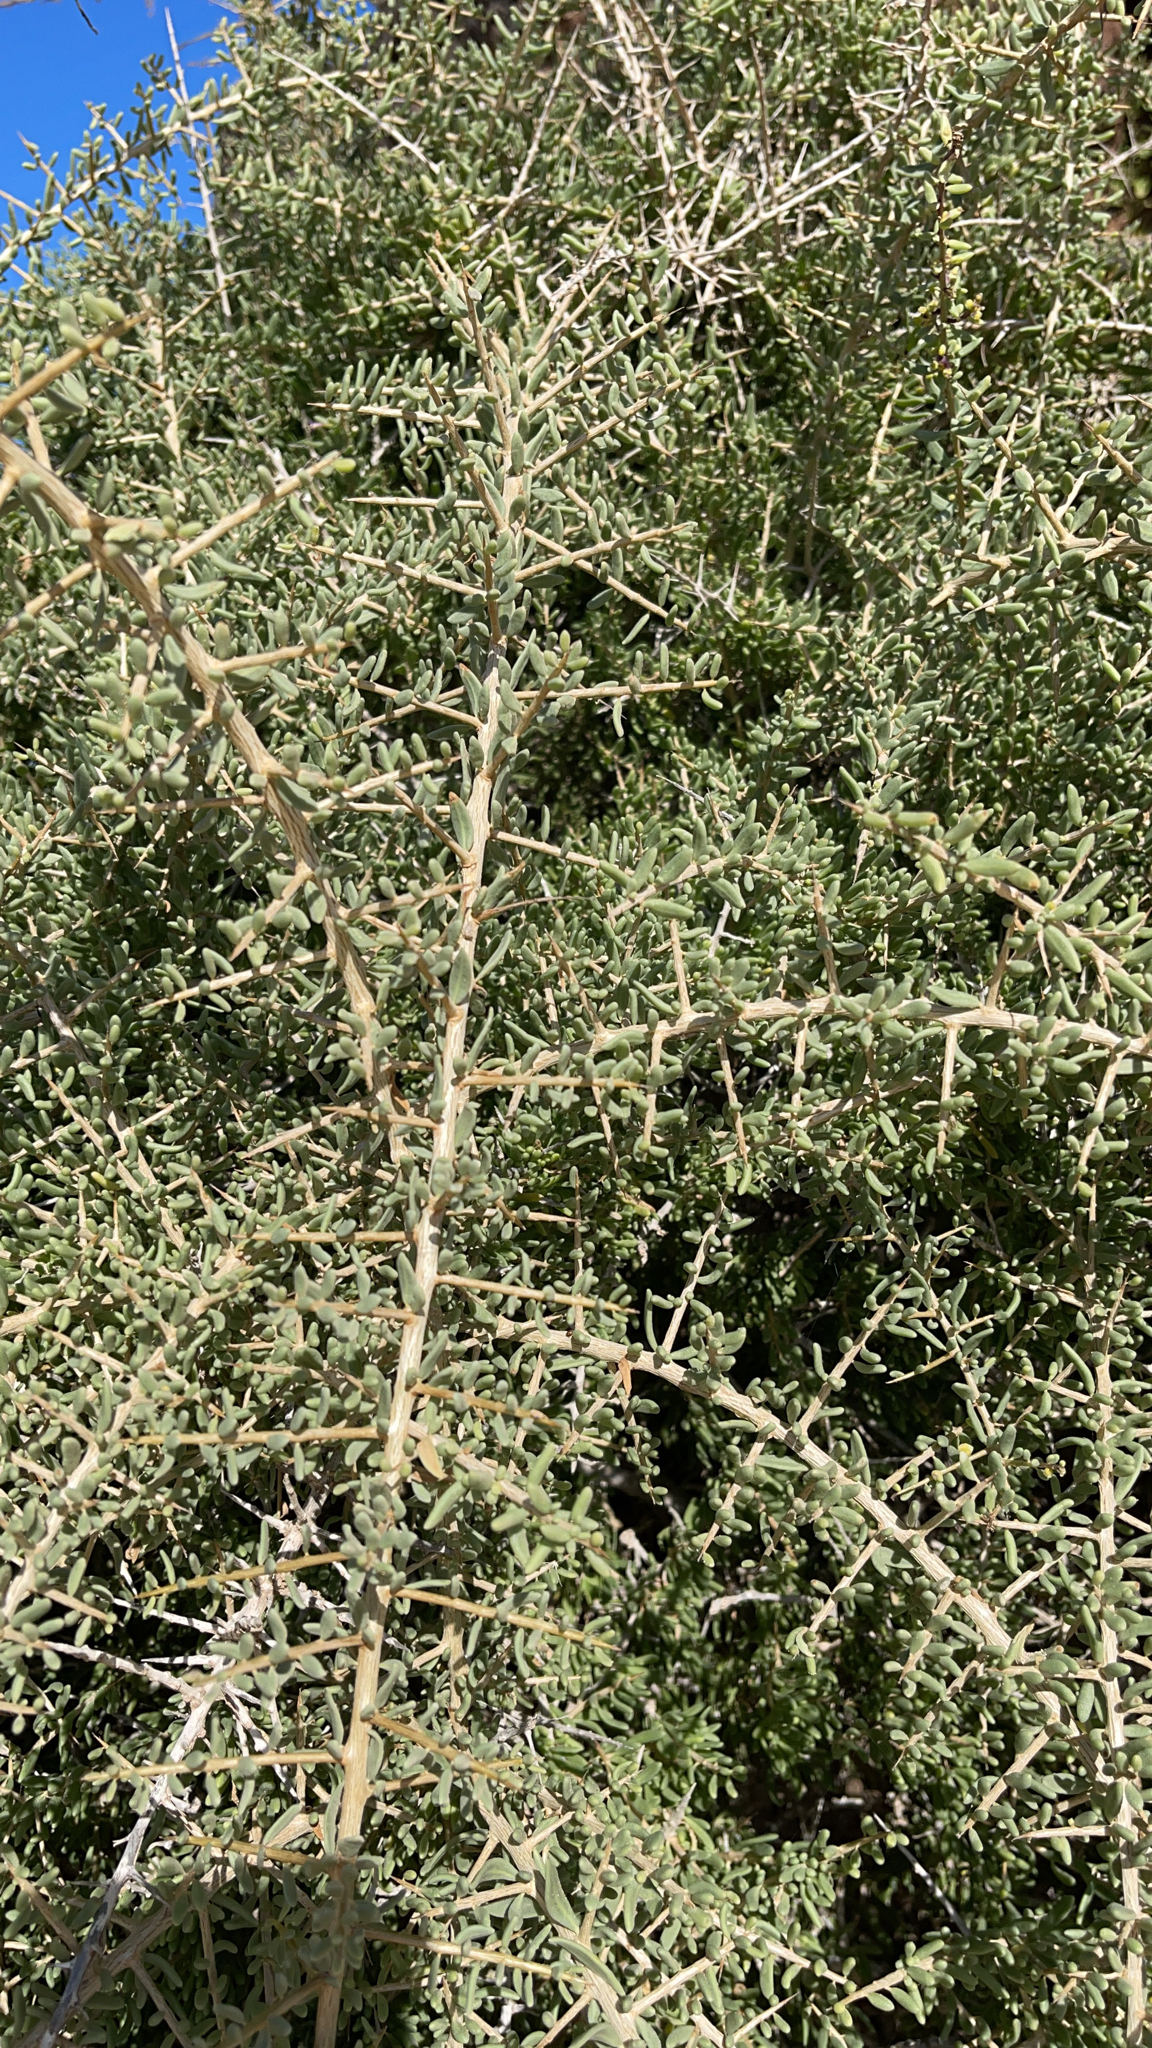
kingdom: Plantae
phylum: Tracheophyta
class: Magnoliopsida
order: Solanales
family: Solanaceae
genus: Lycium
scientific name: Lycium intricatum
